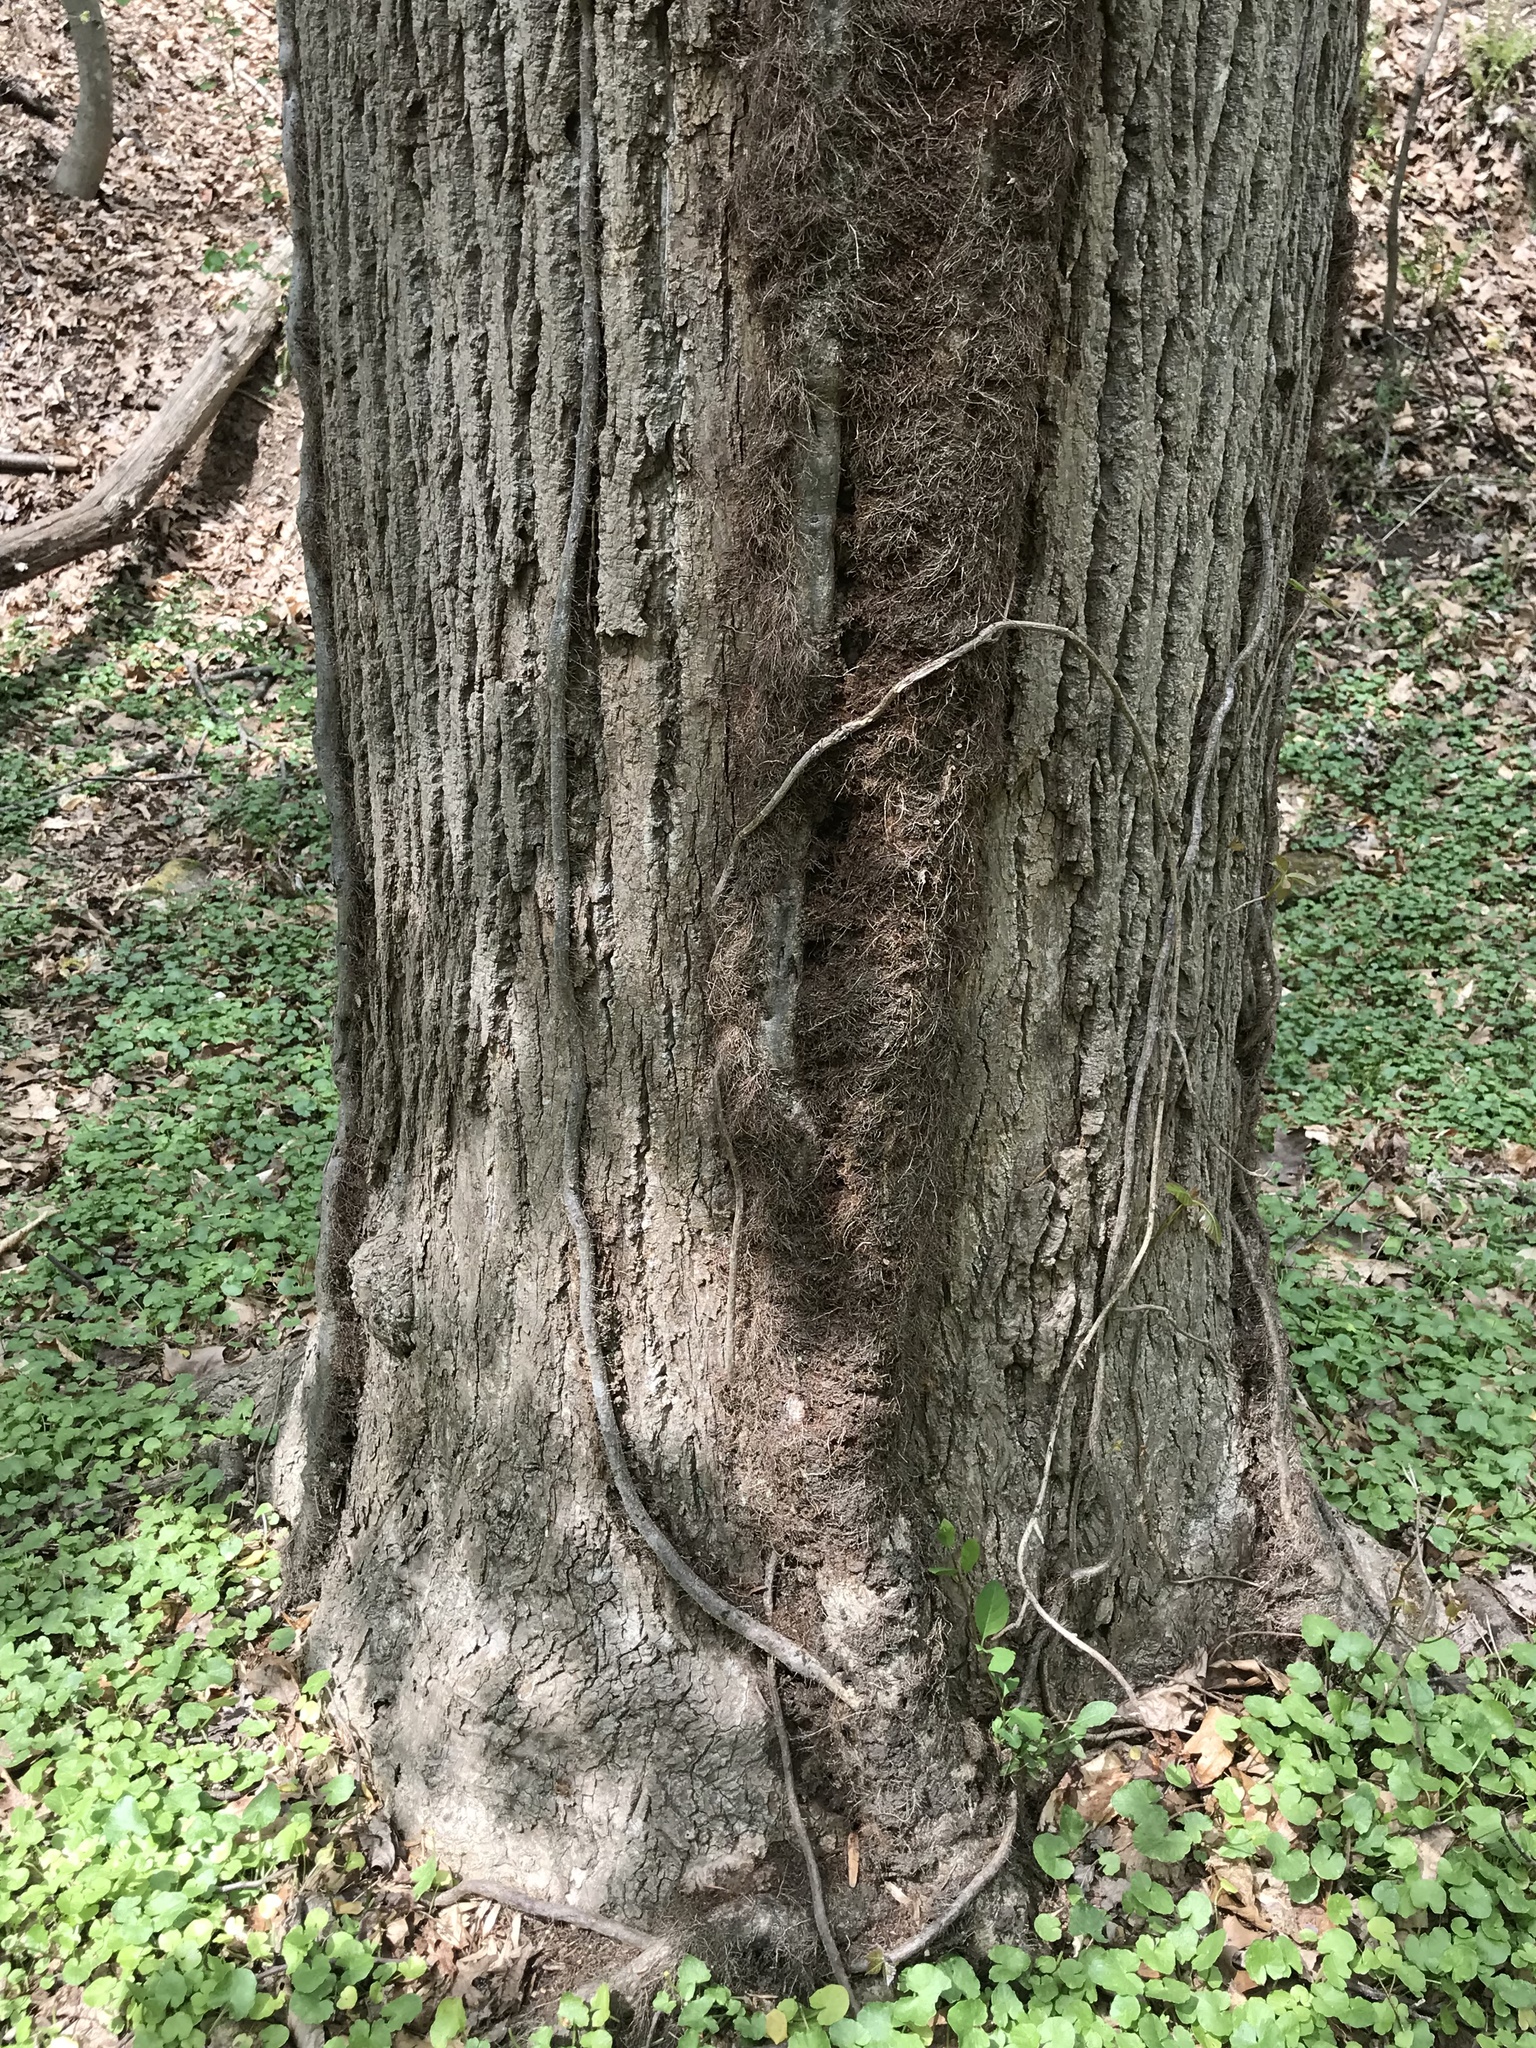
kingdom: Plantae
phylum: Tracheophyta
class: Magnoliopsida
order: Sapindales
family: Anacardiaceae
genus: Toxicodendron
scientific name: Toxicodendron radicans
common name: Poison ivy
